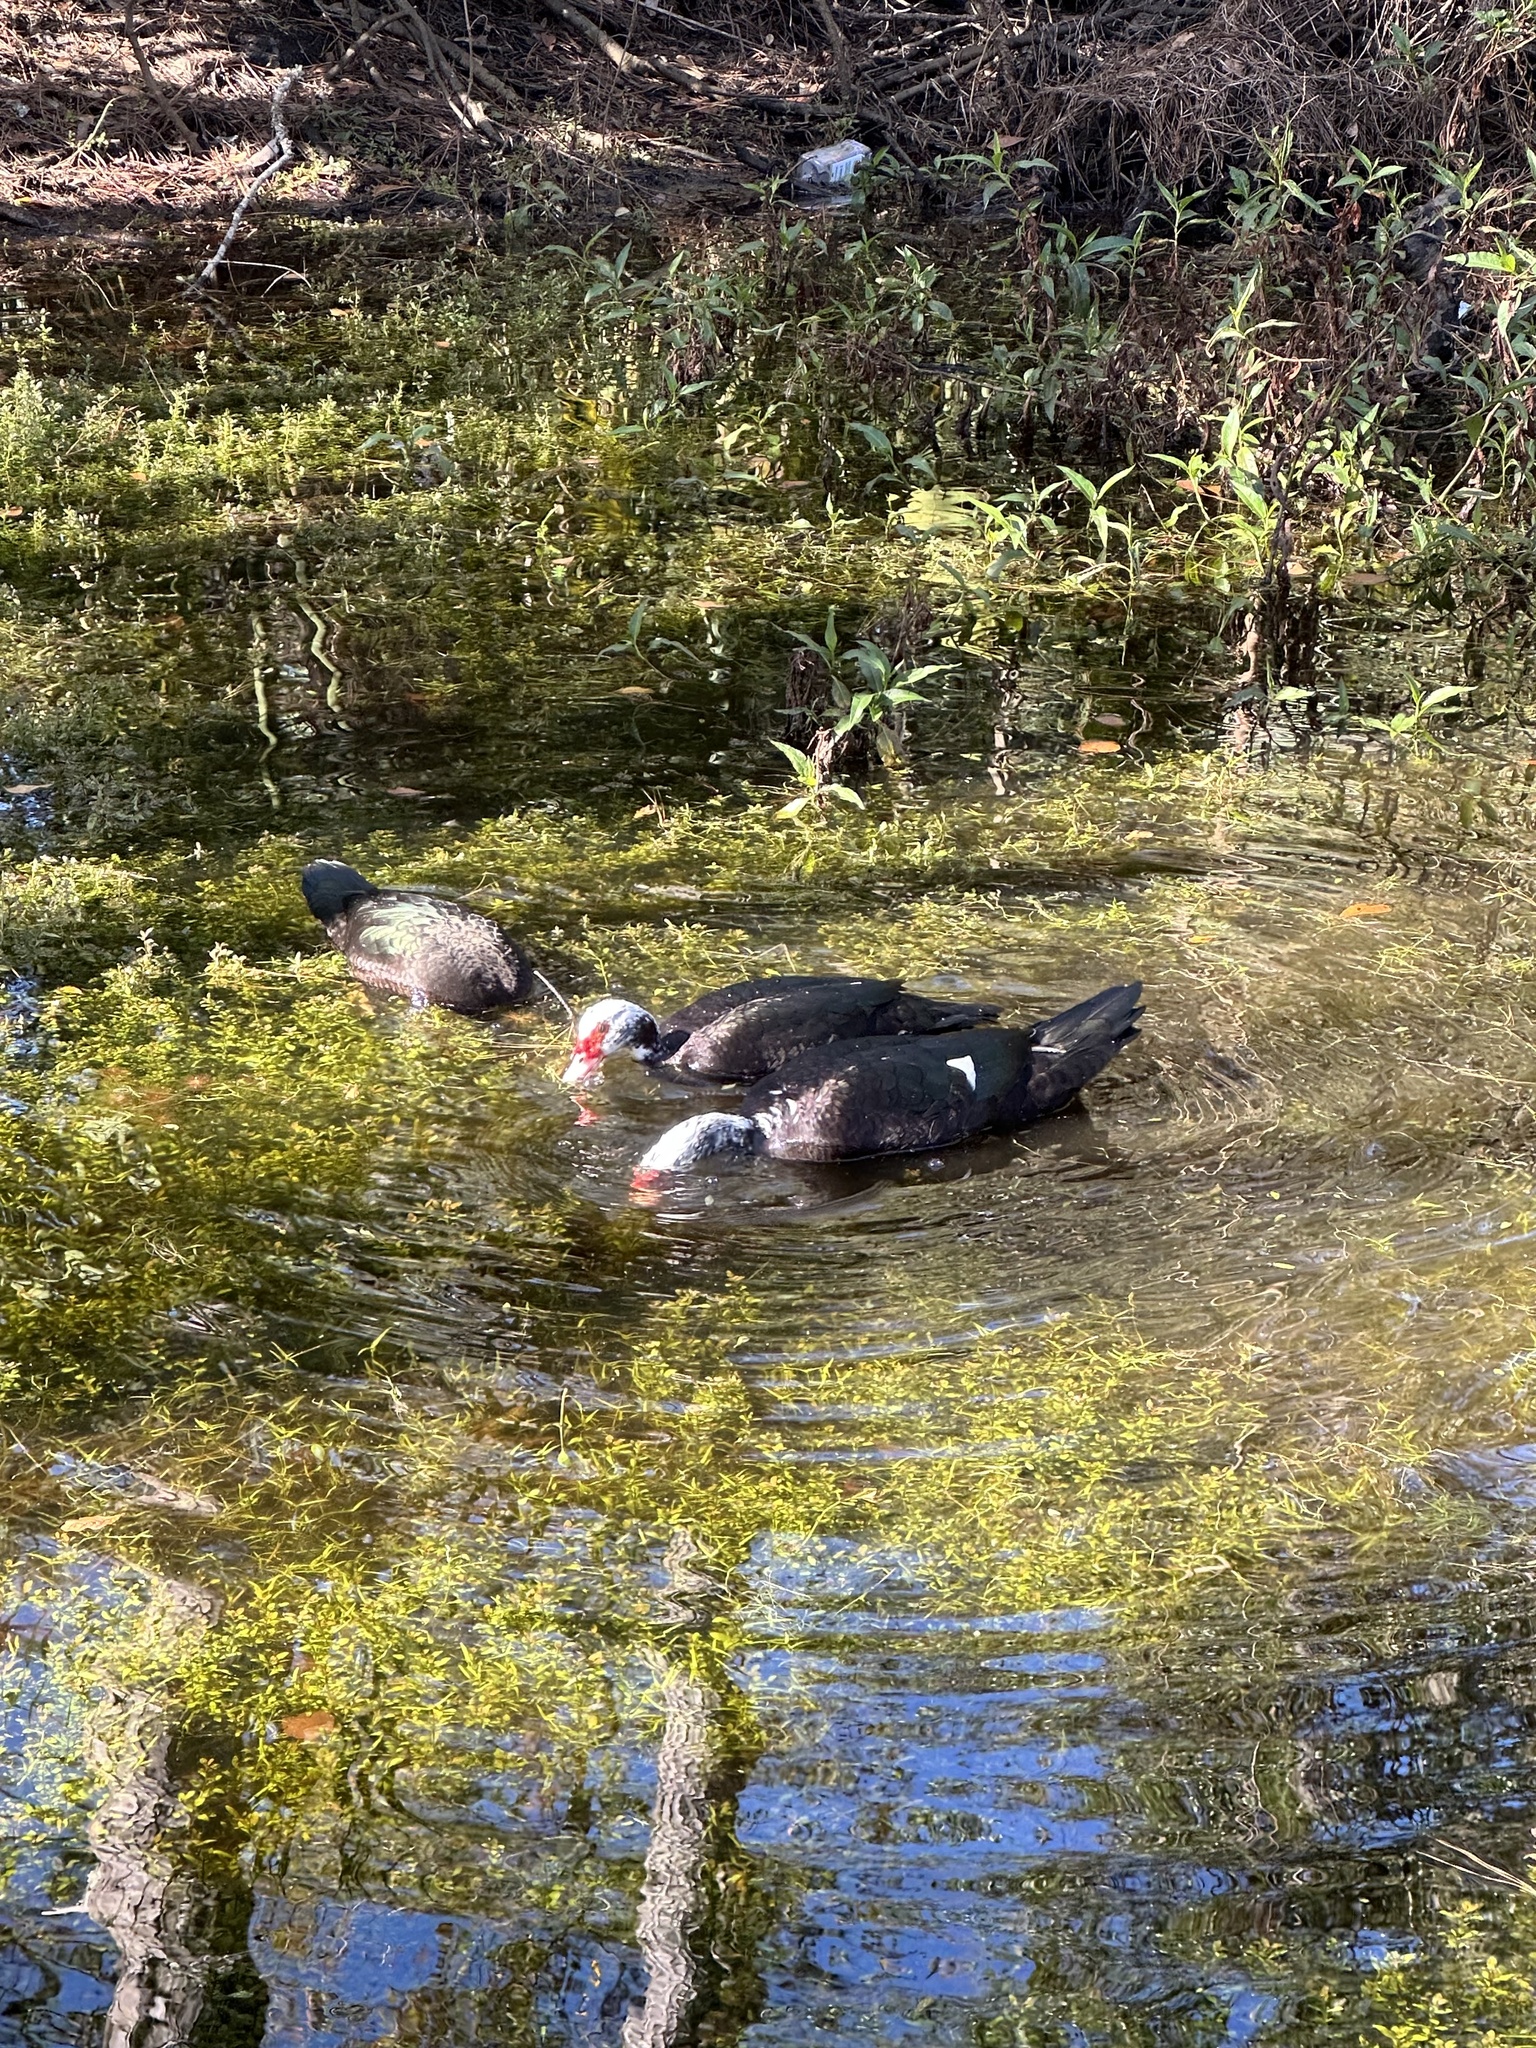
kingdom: Animalia
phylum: Chordata
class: Aves
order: Anseriformes
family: Anatidae
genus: Cairina
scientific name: Cairina moschata
